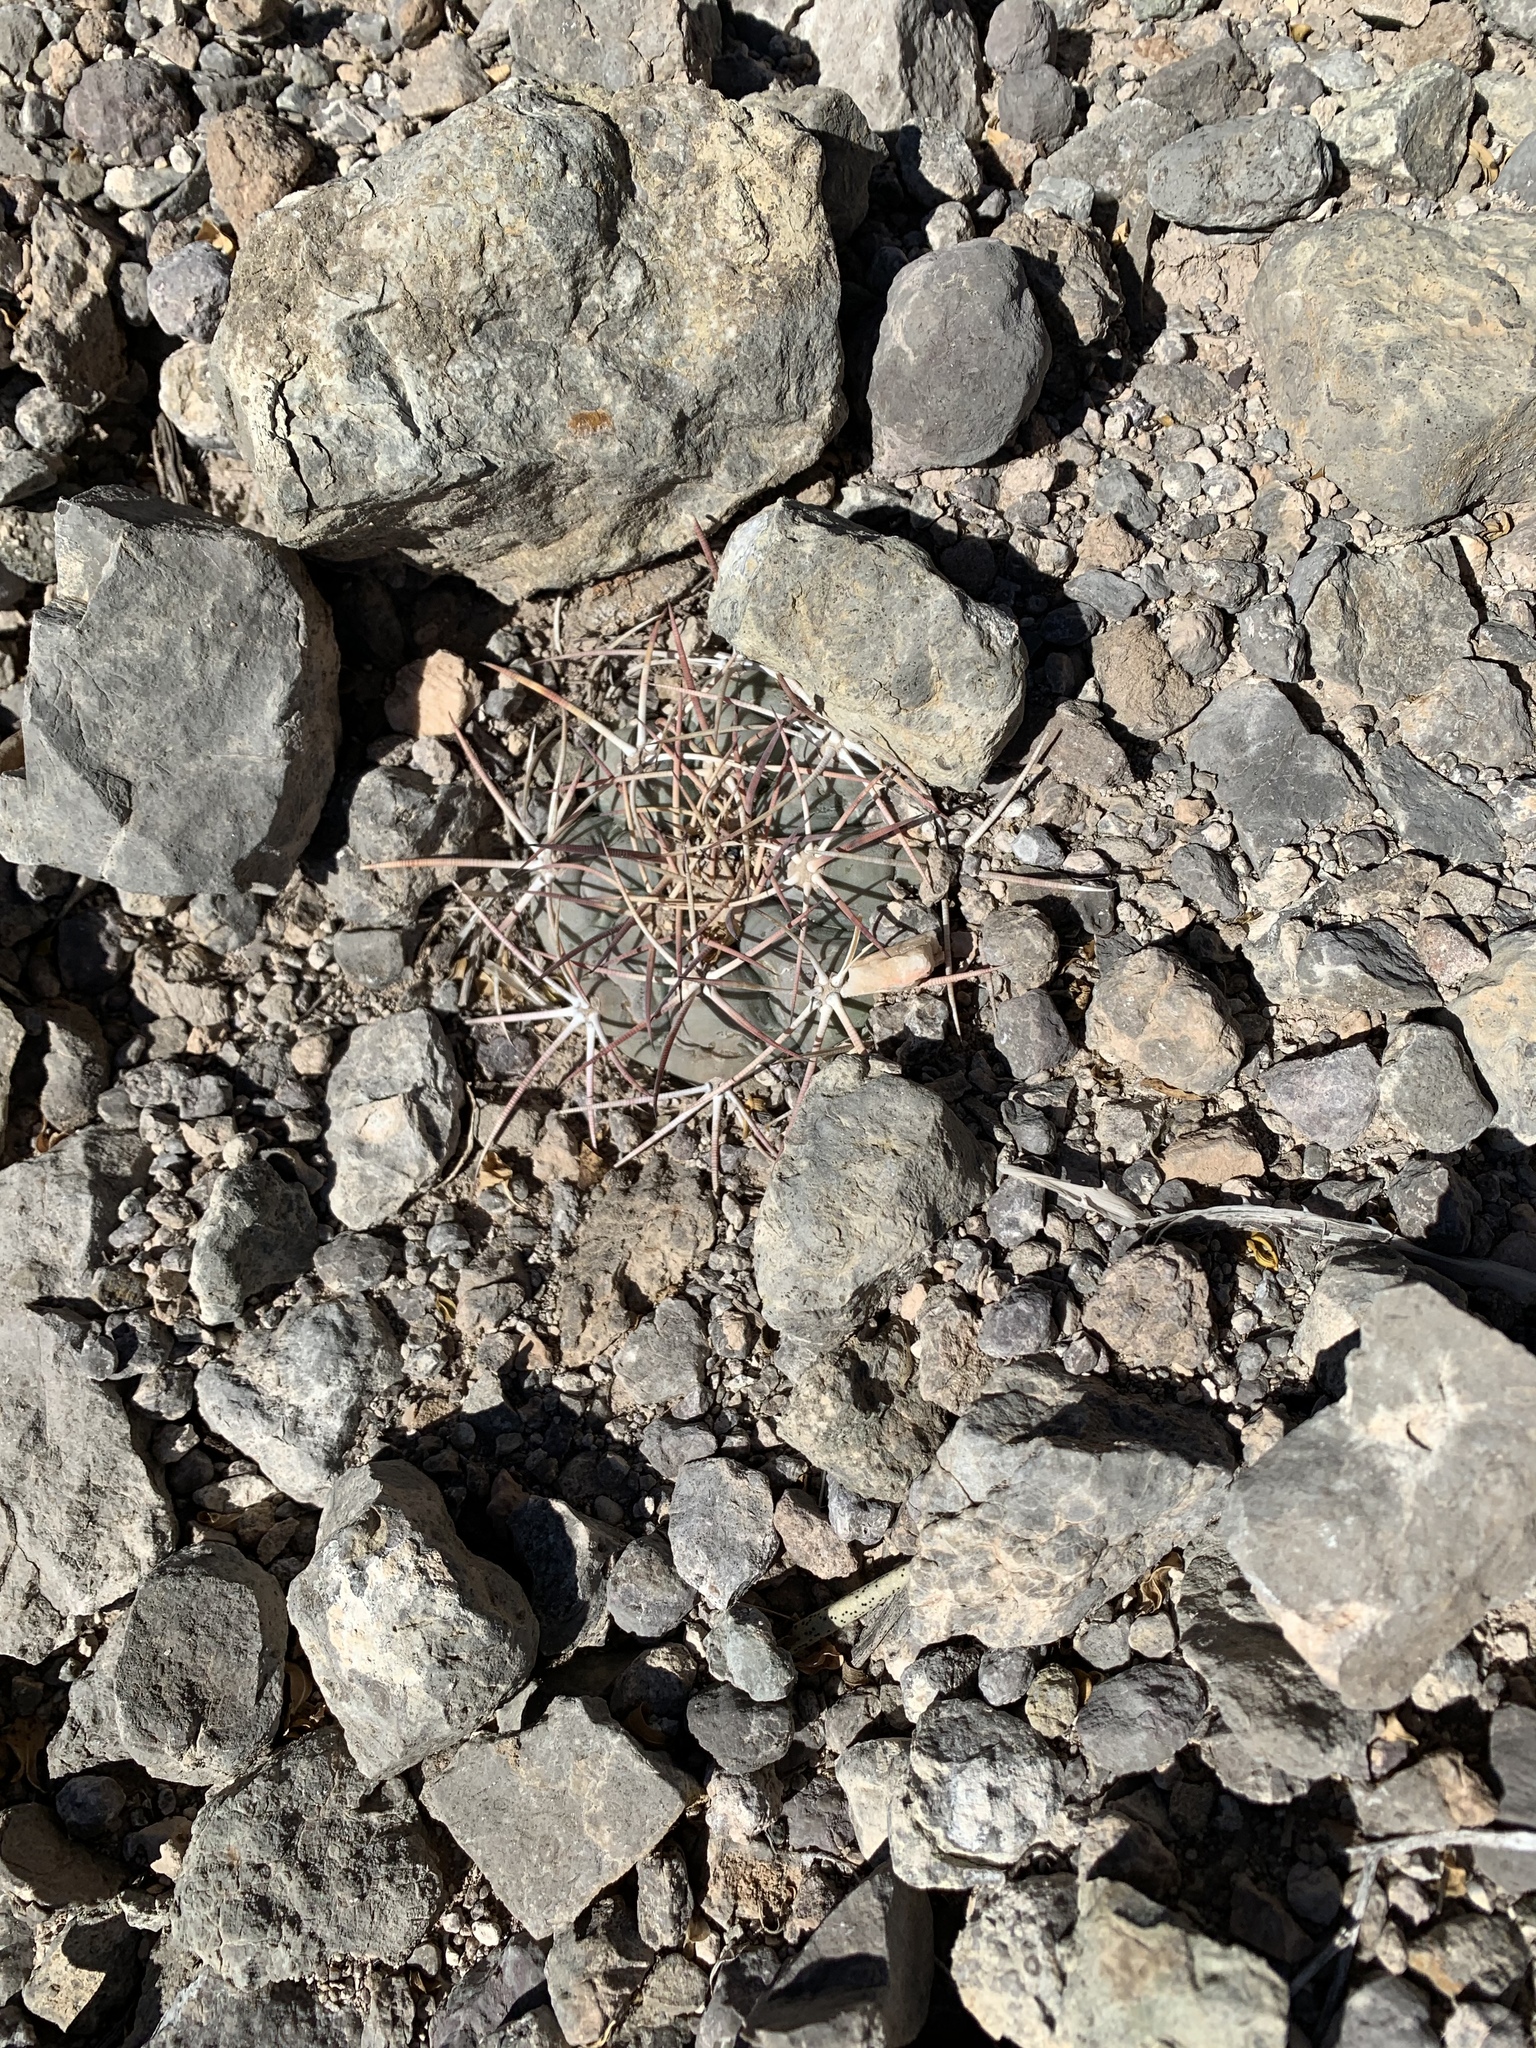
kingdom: Plantae
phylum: Tracheophyta
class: Magnoliopsida
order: Caryophyllales
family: Cactaceae
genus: Echinocactus
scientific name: Echinocactus horizonthalonius
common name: Devilshead
